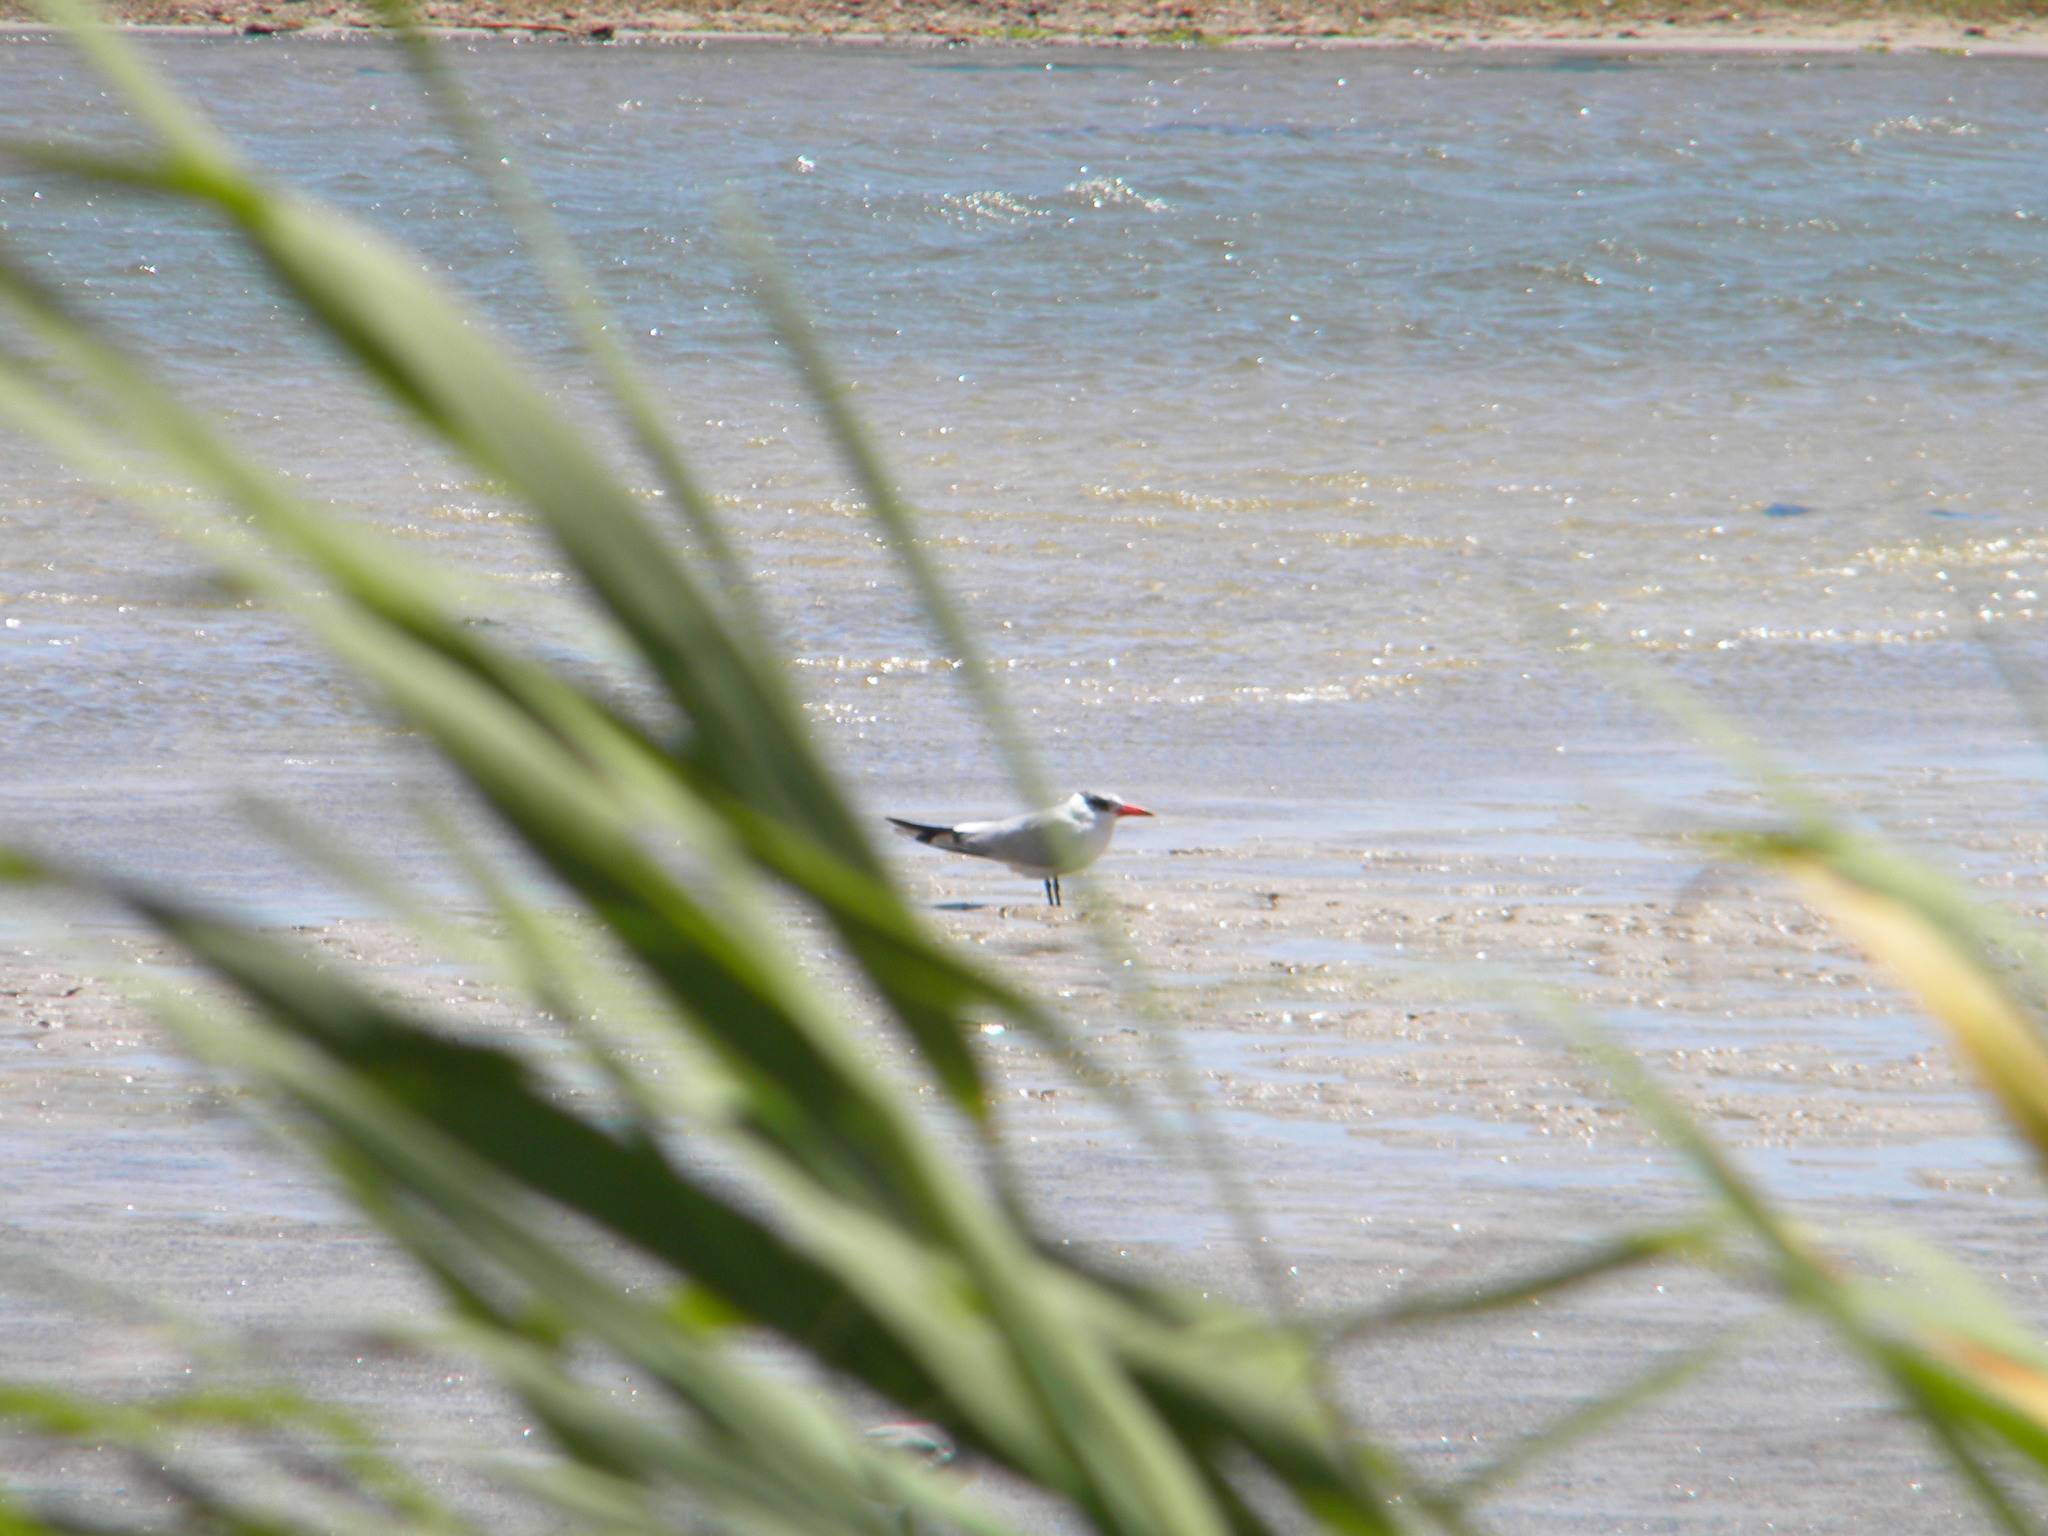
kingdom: Animalia
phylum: Chordata
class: Aves
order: Charadriiformes
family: Laridae
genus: Hydroprogne
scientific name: Hydroprogne caspia
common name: Caspian tern
